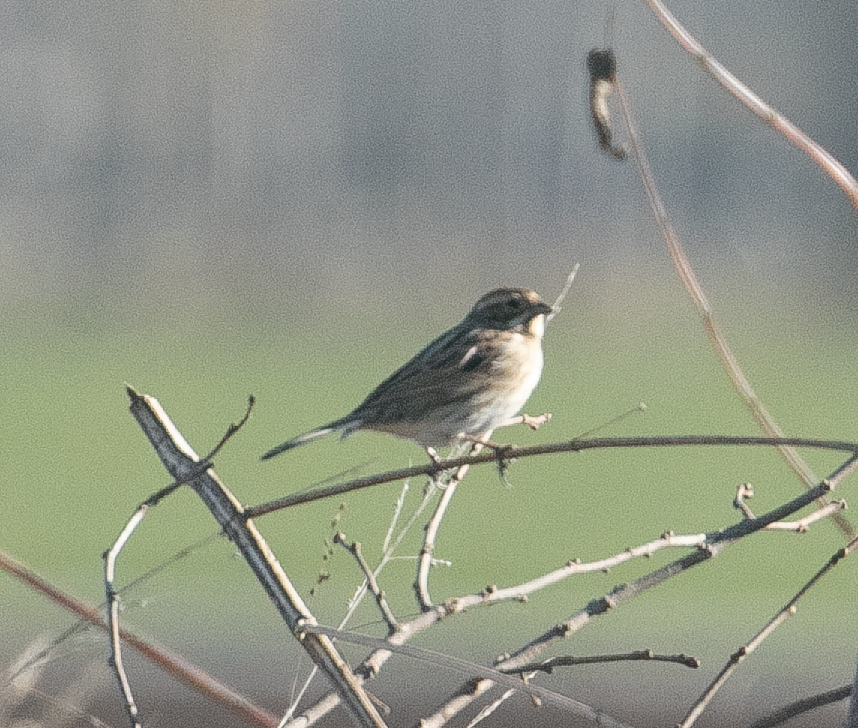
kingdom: Animalia
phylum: Chordata
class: Aves
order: Passeriformes
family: Emberizidae
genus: Emberiza
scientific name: Emberiza schoeniclus
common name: Reed bunting
